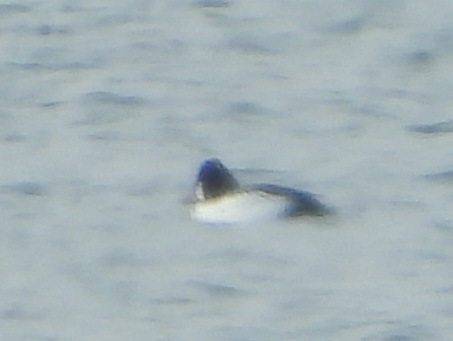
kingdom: Animalia
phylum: Chordata
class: Aves
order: Anseriformes
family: Anatidae
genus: Bucephala
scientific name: Bucephala clangula
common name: Common goldeneye
